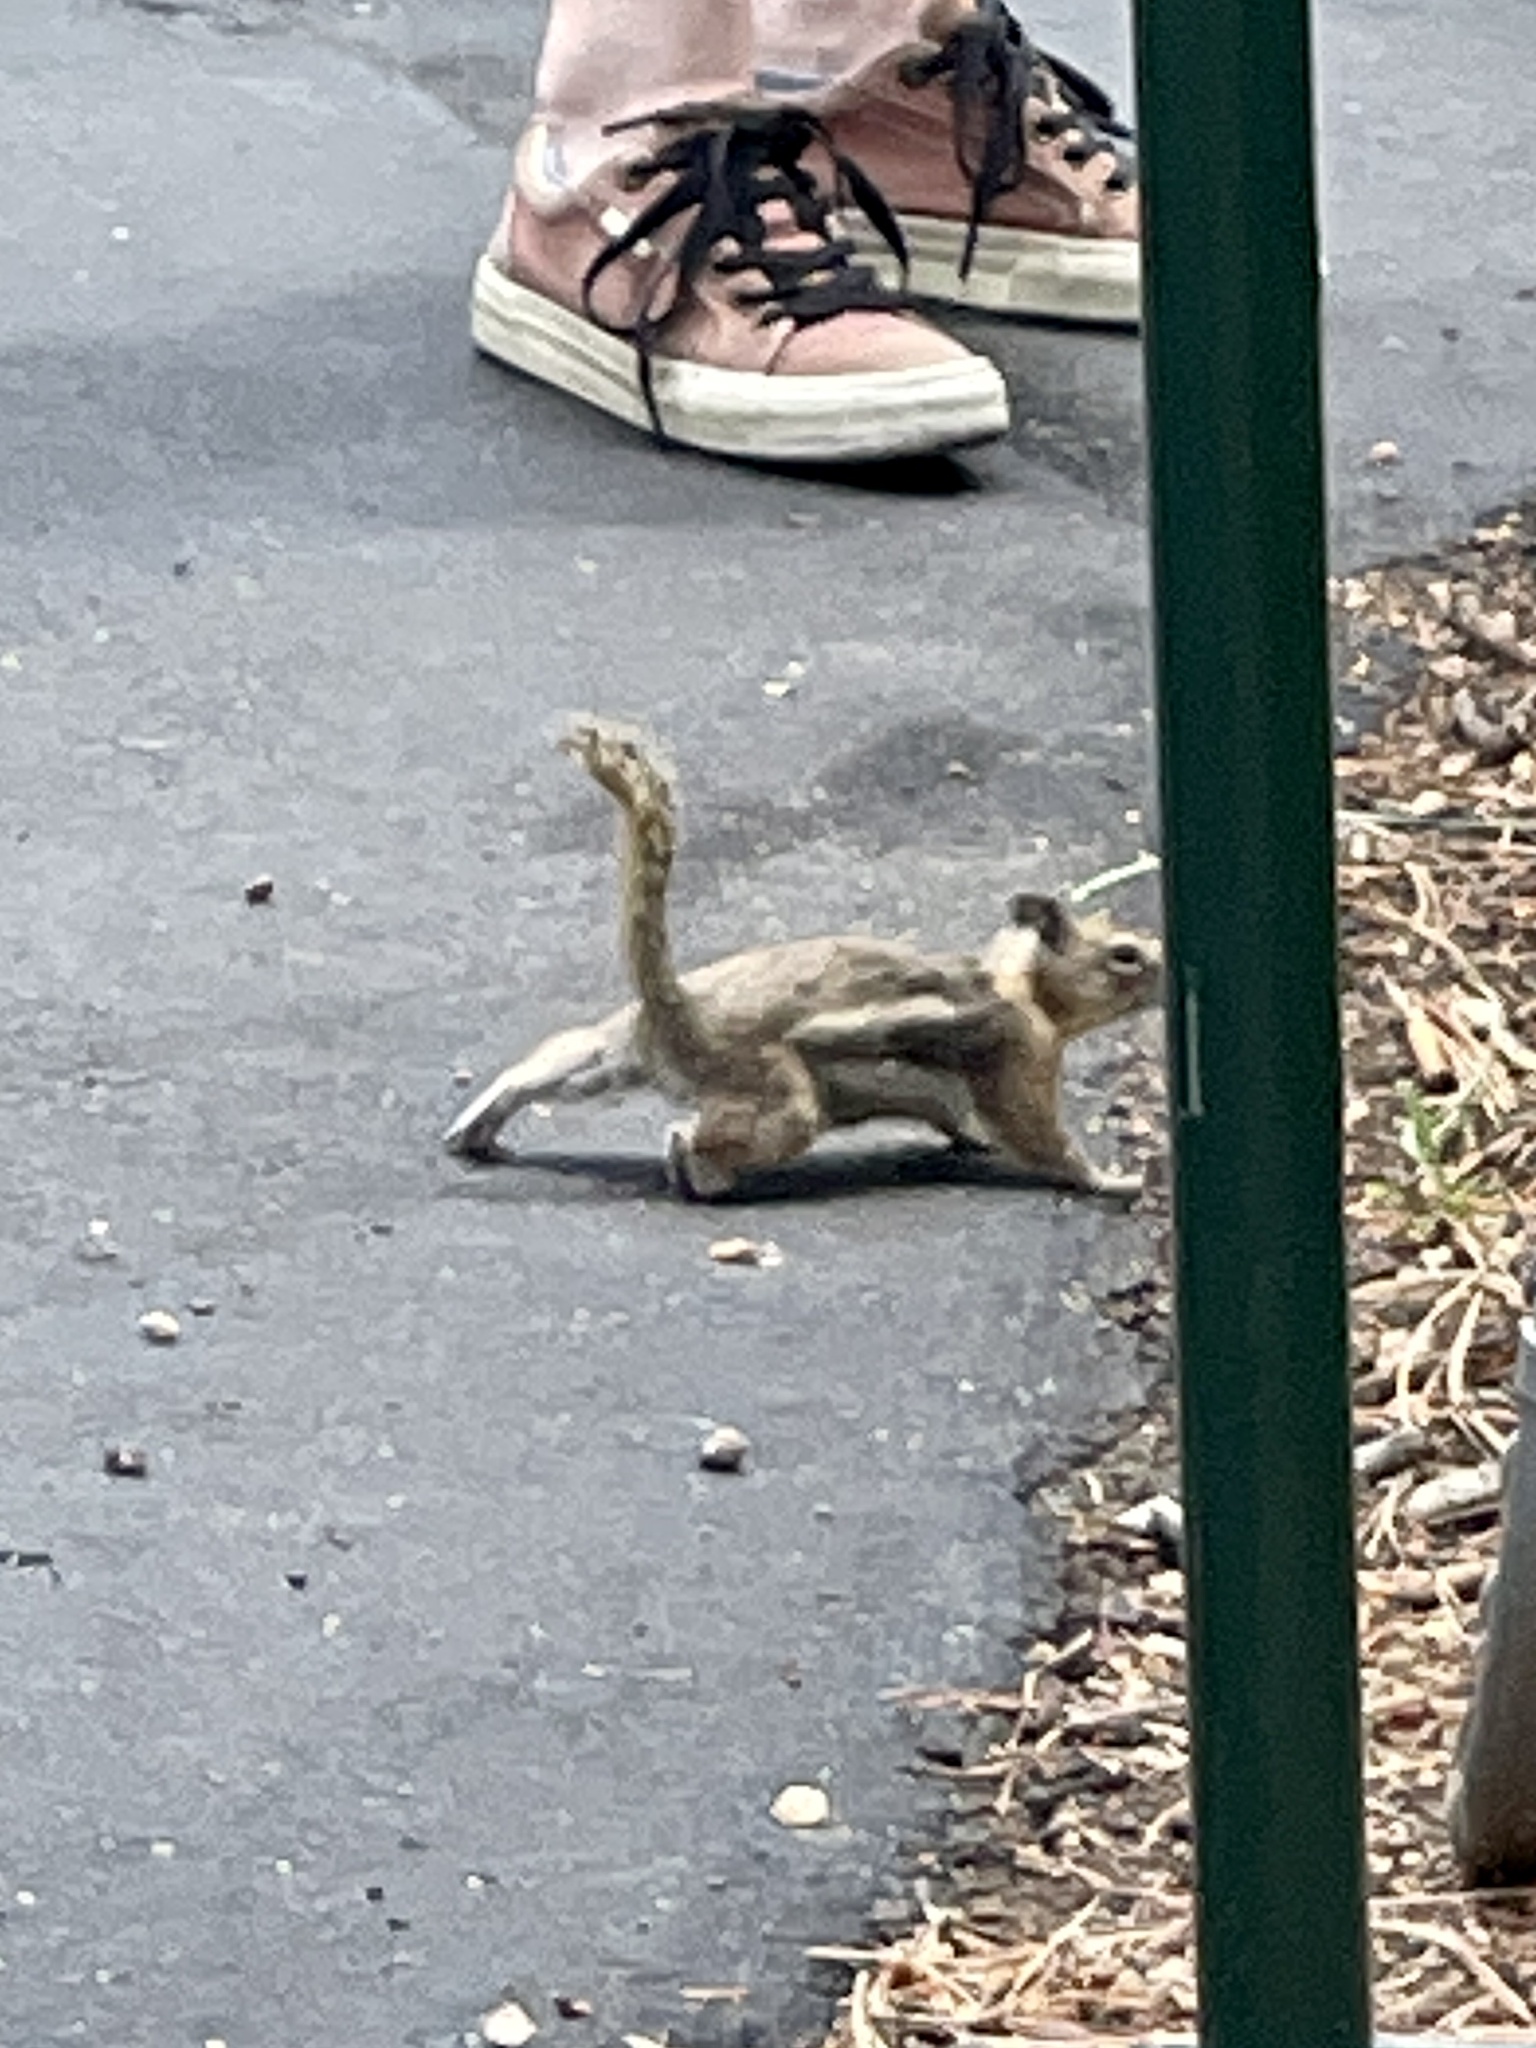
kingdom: Animalia
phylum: Chordata
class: Mammalia
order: Rodentia
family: Sciuridae
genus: Callospermophilus
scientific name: Callospermophilus lateralis
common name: Golden-mantled ground squirrel
